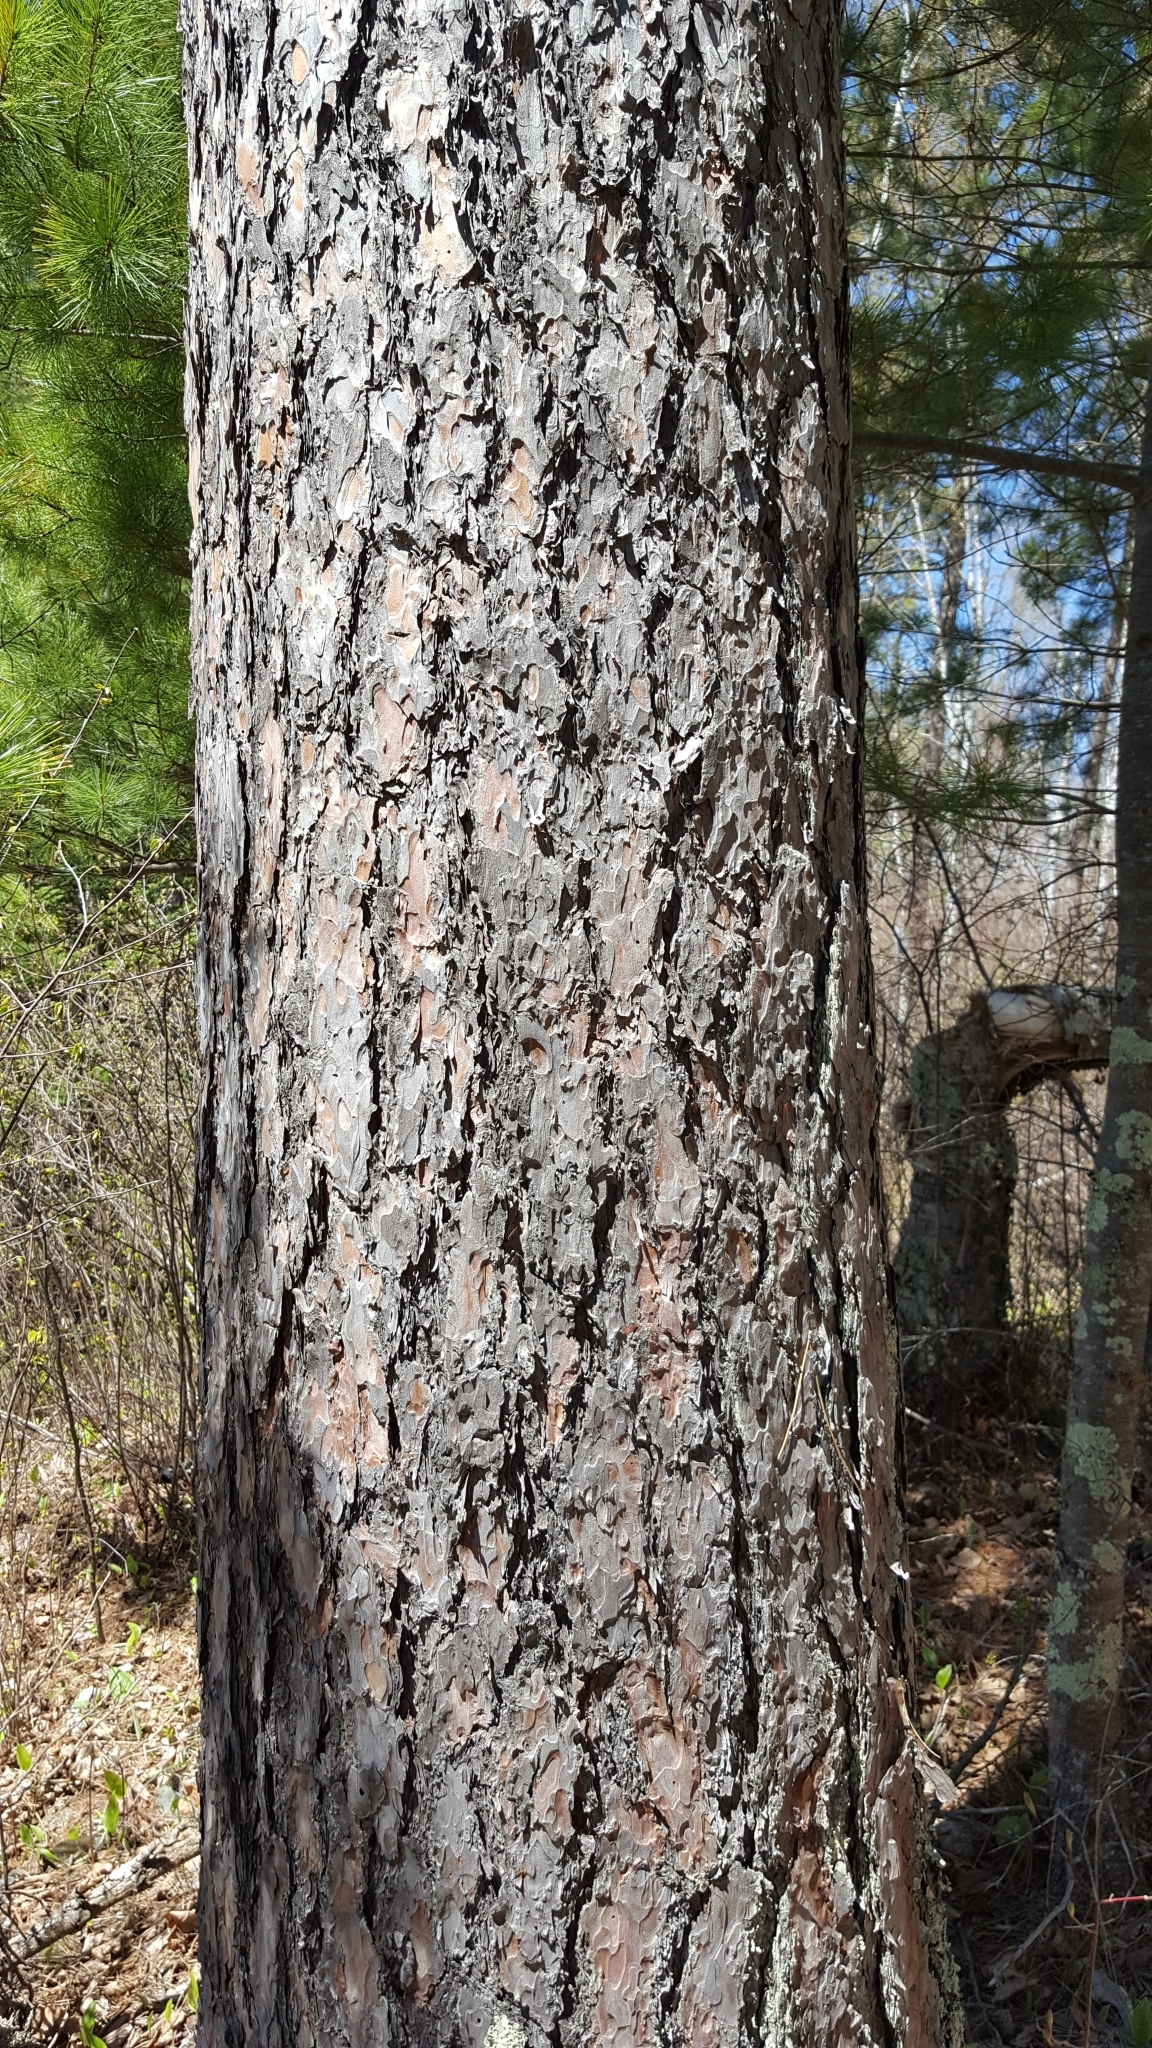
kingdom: Plantae
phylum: Tracheophyta
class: Pinopsida
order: Pinales
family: Pinaceae
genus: Pinus
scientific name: Pinus resinosa
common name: Norway pine
